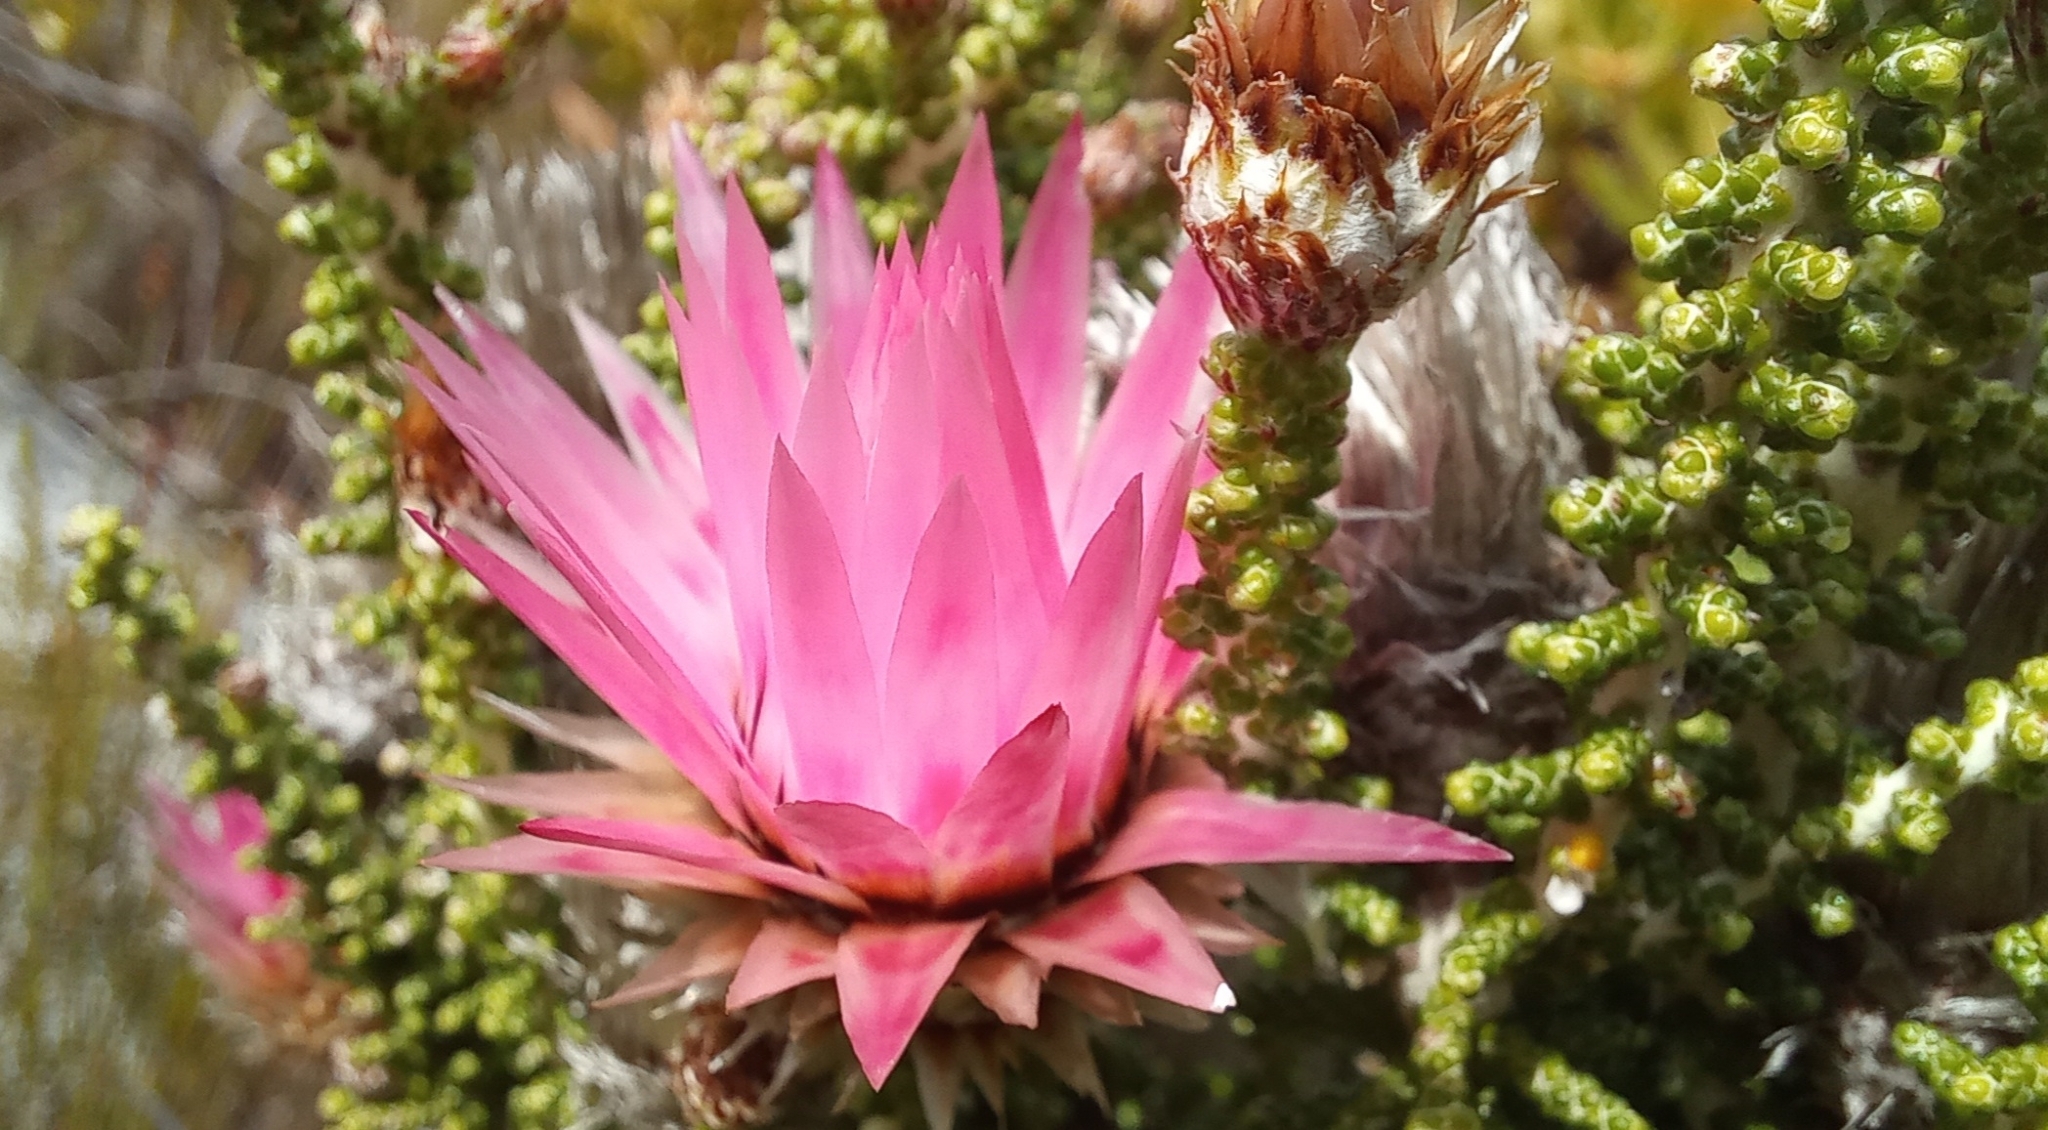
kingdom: Plantae
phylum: Tracheophyta
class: Magnoliopsida
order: Asterales
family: Asteraceae
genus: Phaenocoma
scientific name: Phaenocoma prolifera
